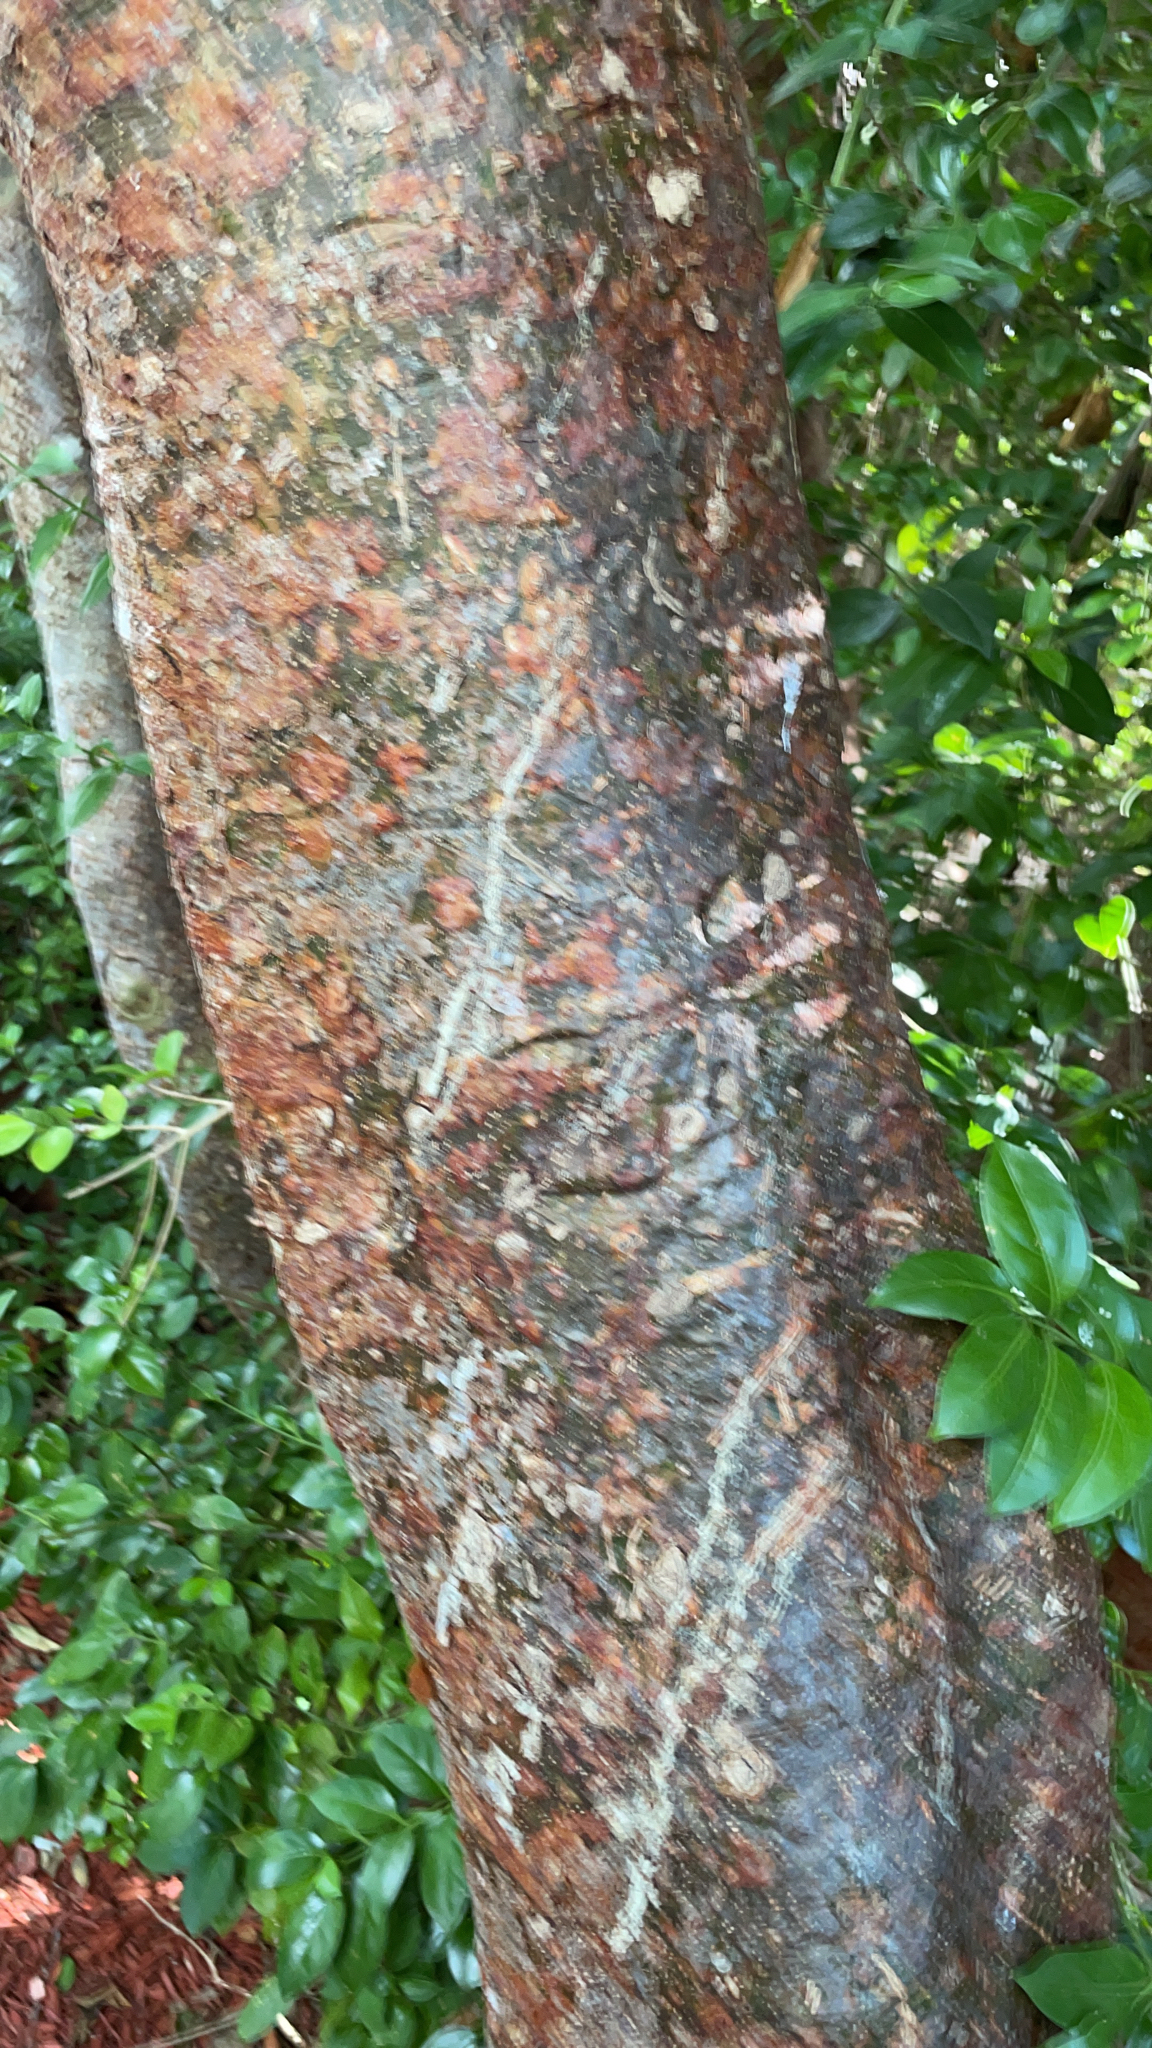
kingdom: Plantae
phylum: Tracheophyta
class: Magnoliopsida
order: Sapindales
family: Burseraceae
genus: Bursera
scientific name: Bursera simaruba
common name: Turpentine tree
